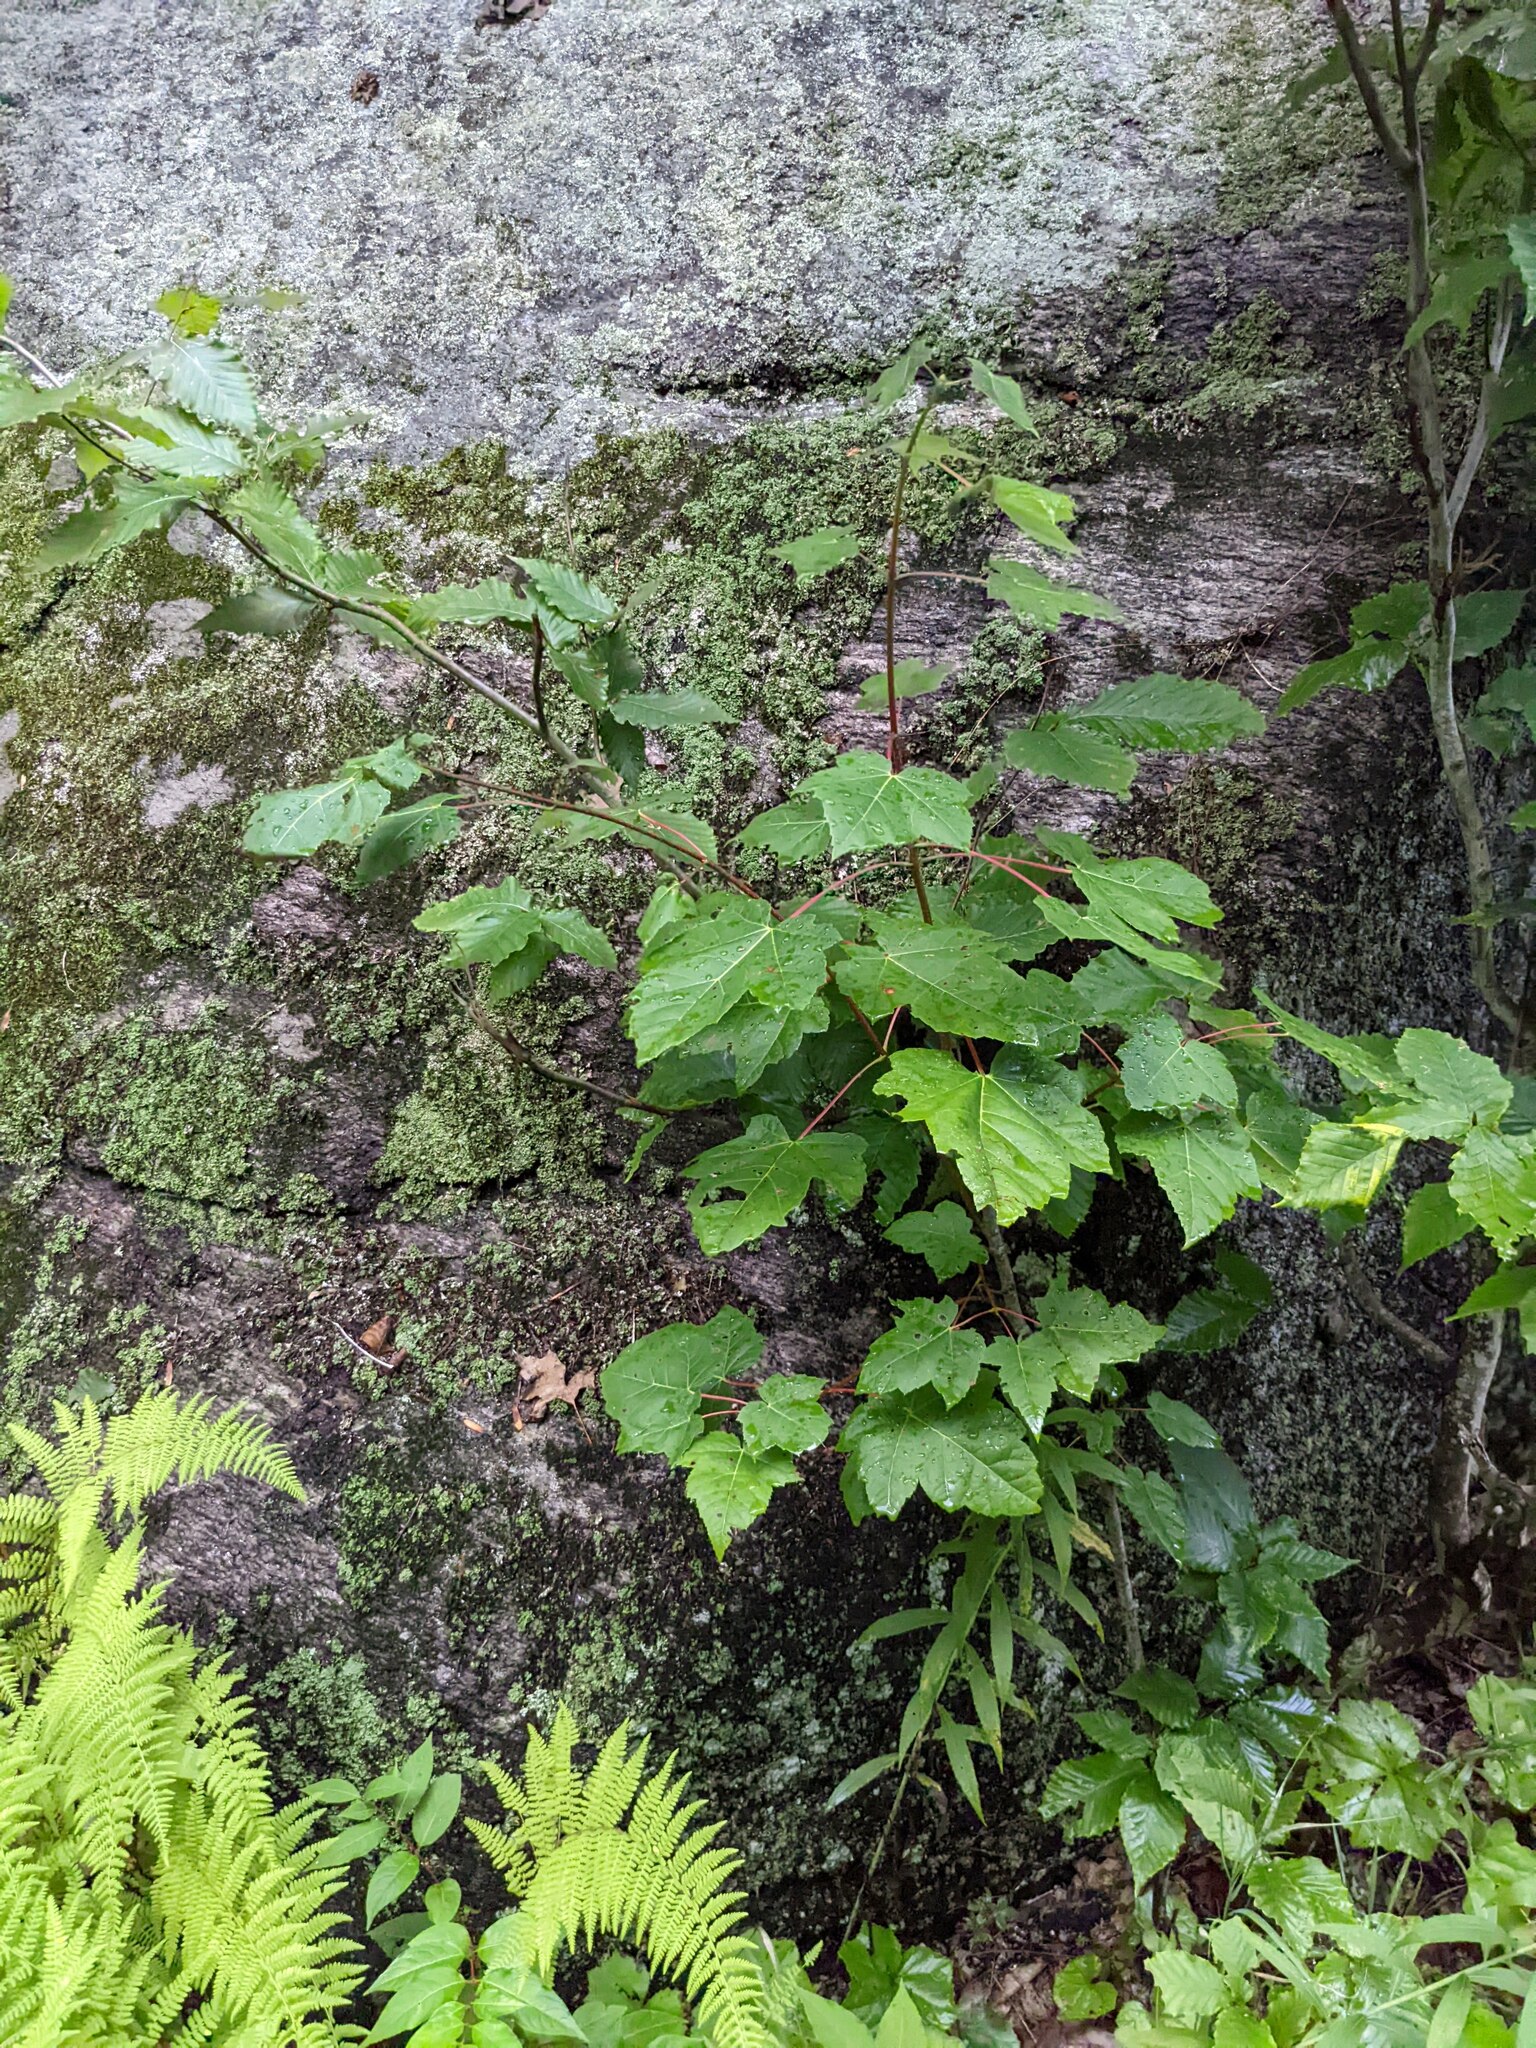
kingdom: Plantae
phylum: Tracheophyta
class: Magnoliopsida
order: Sapindales
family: Sapindaceae
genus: Acer
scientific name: Acer rubrum
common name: Red maple
